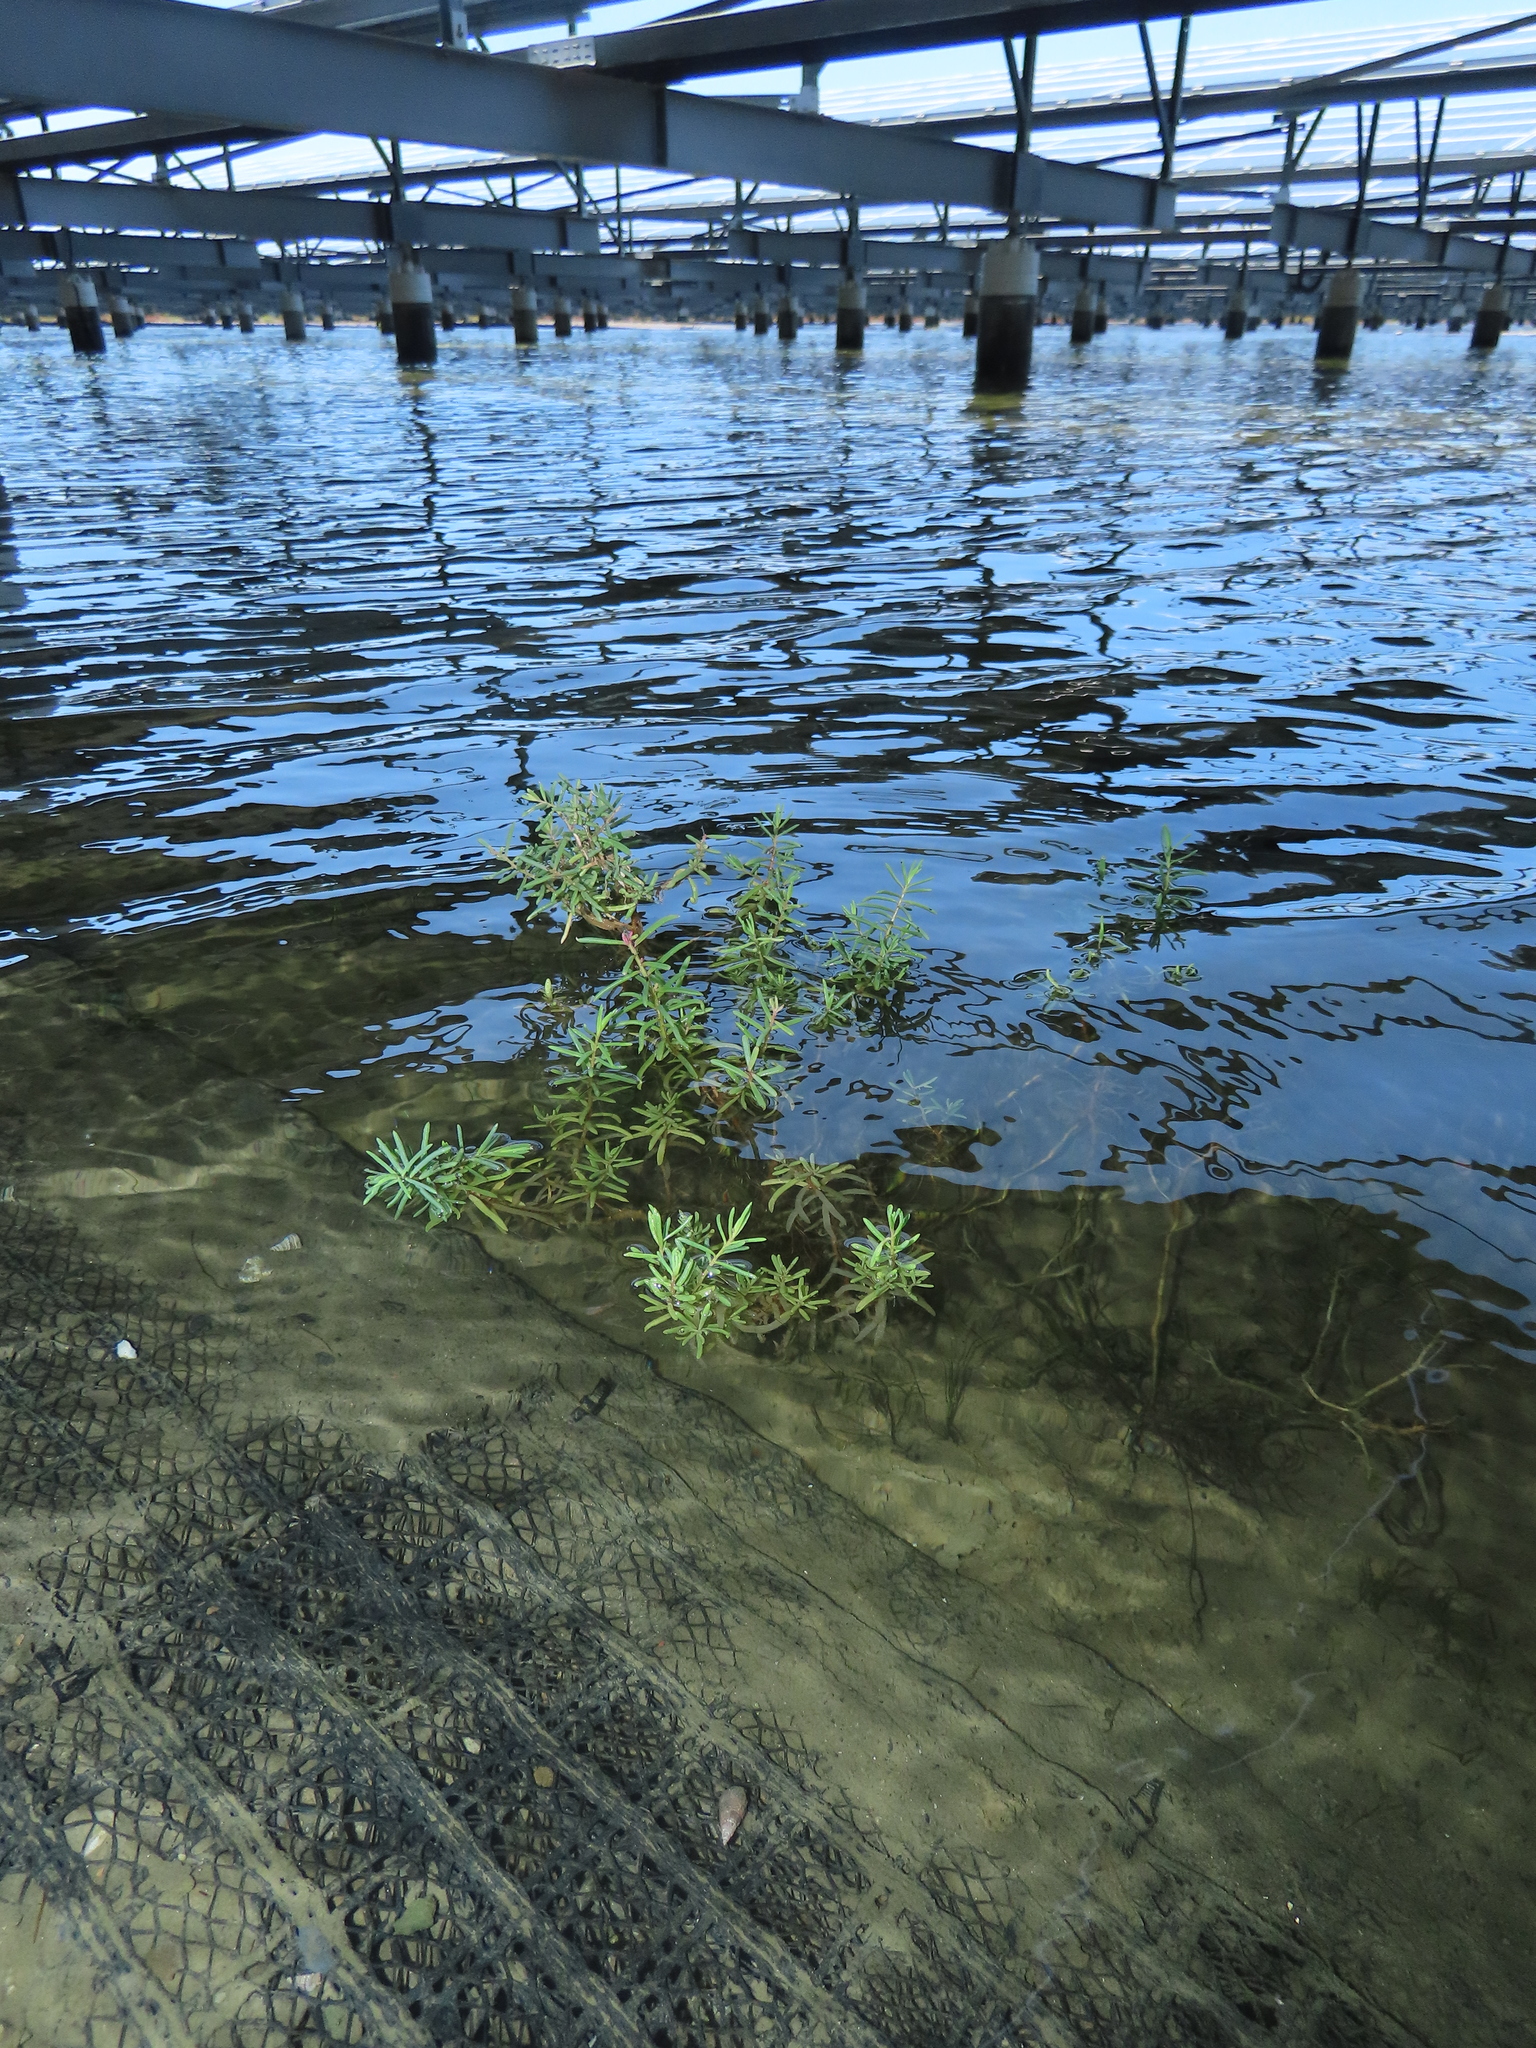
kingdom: Plantae
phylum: Tracheophyta
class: Magnoliopsida
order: Caryophyllales
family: Amaranthaceae
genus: Suaeda
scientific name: Suaeda maritima
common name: Annual sea-blite
